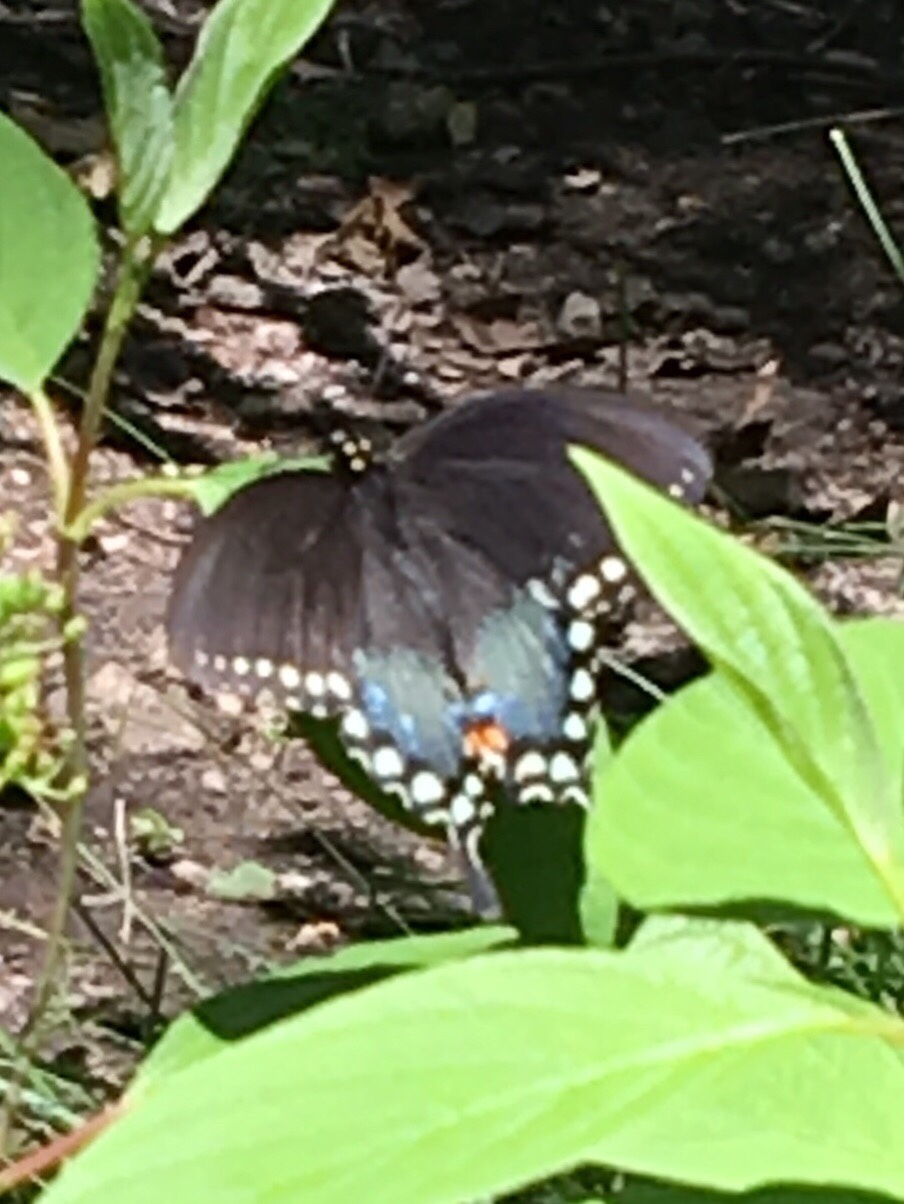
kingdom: Animalia
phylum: Arthropoda
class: Insecta
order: Lepidoptera
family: Papilionidae
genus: Papilio
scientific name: Papilio troilus
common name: Spicebush swallowtail
